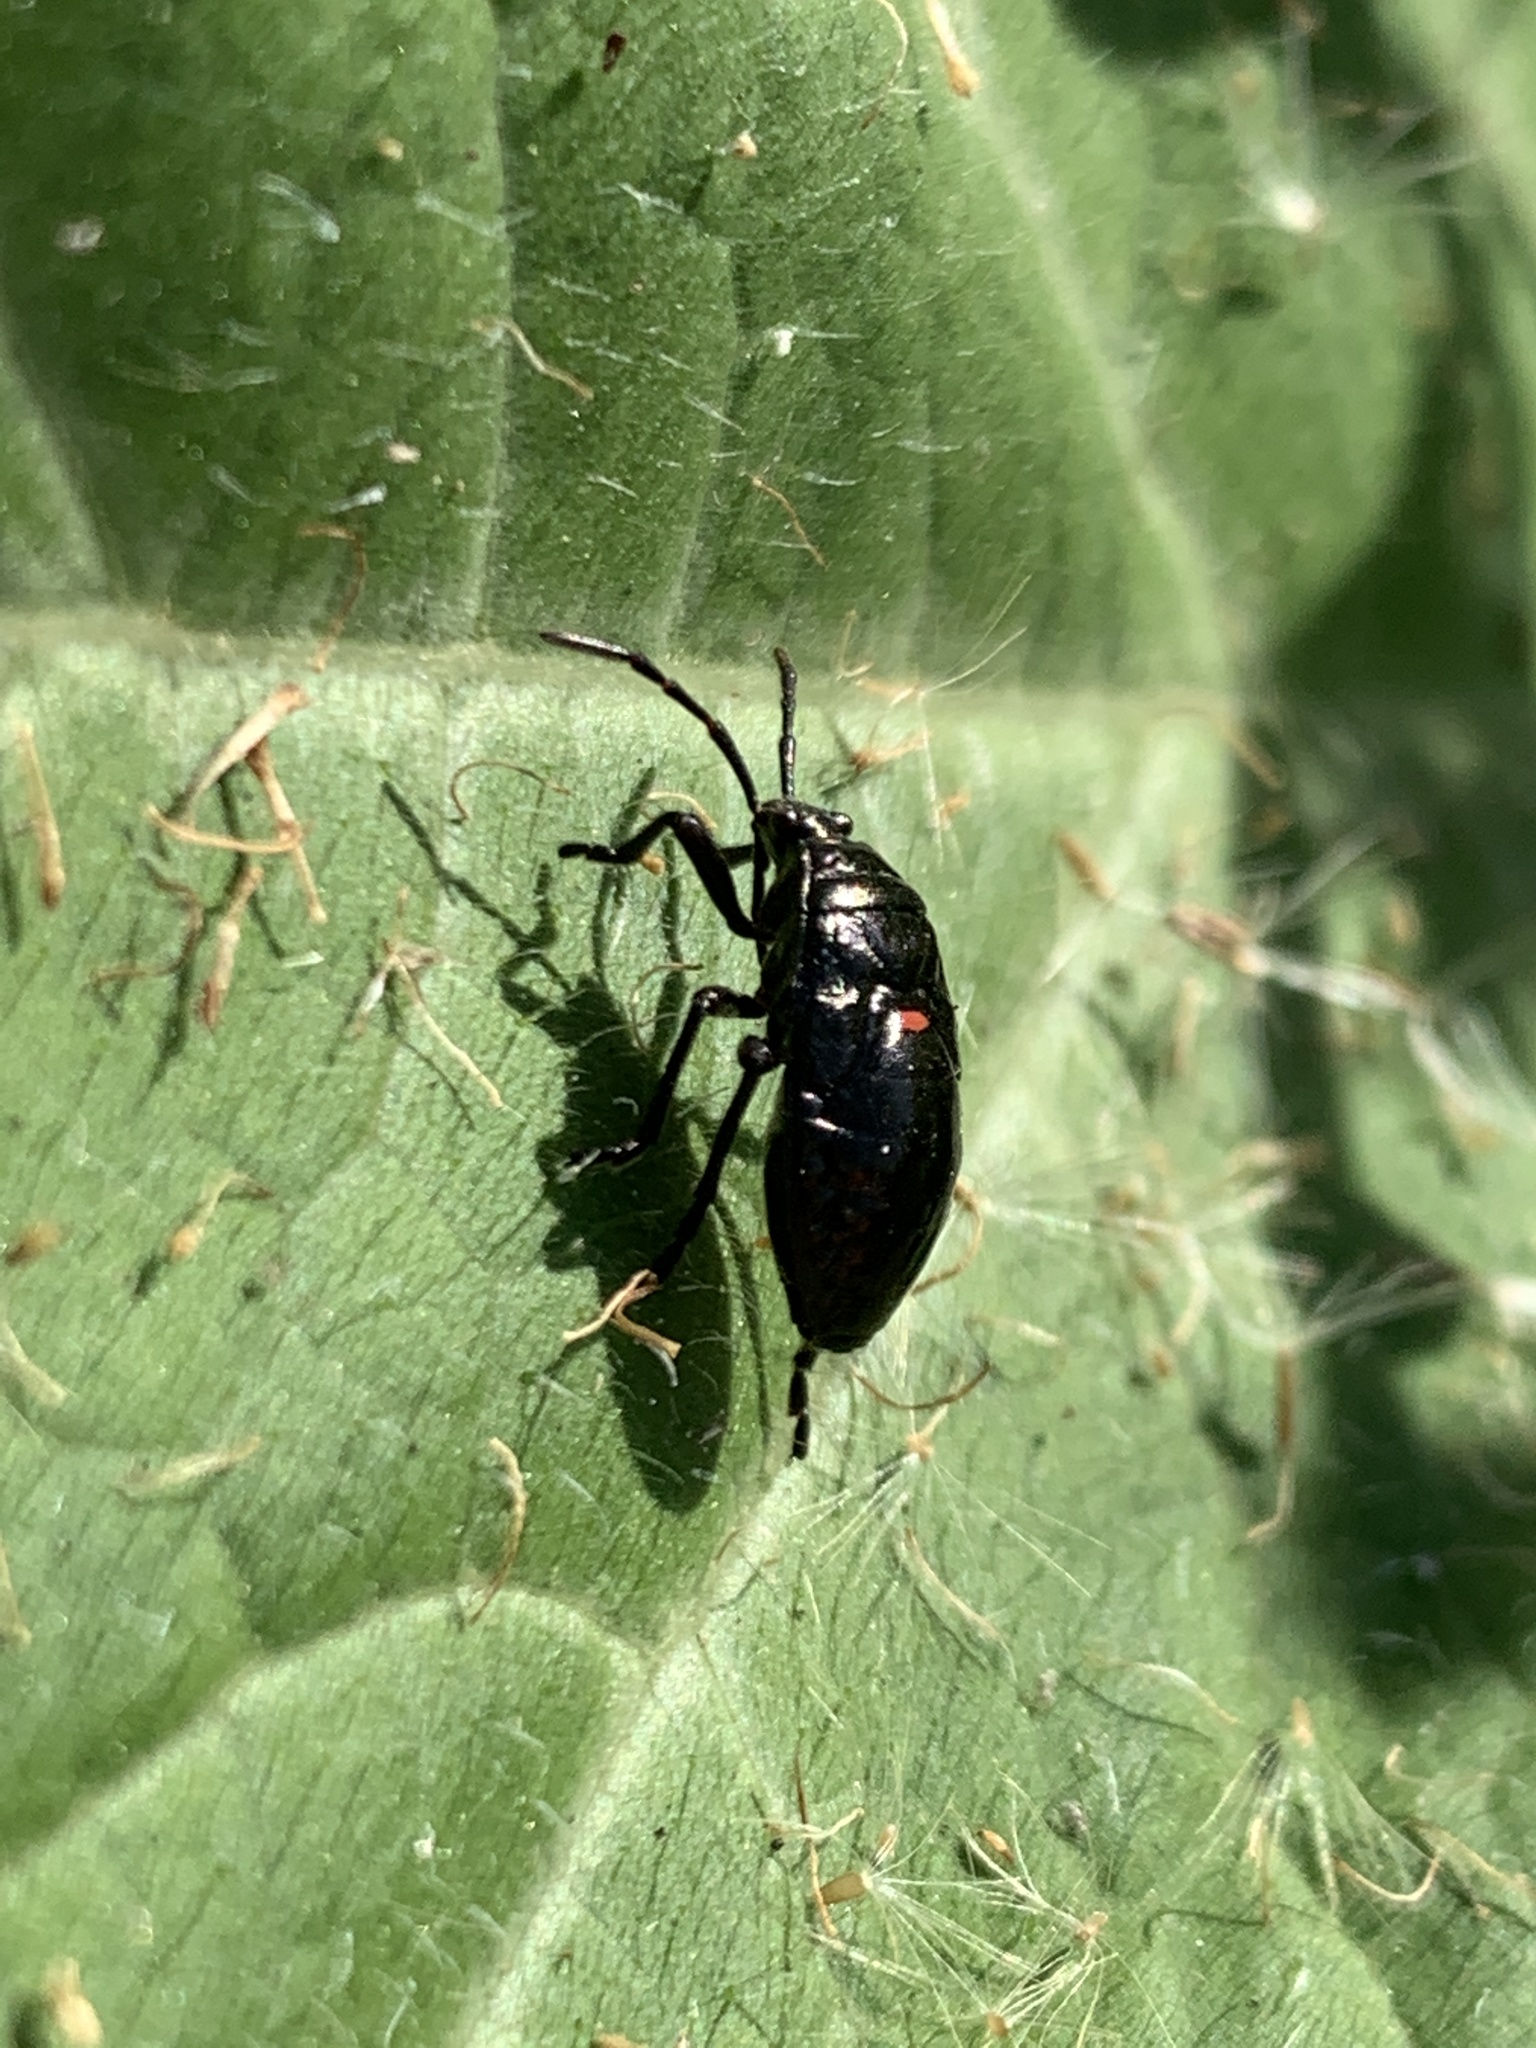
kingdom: Animalia
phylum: Arthropoda
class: Insecta
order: Hemiptera
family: Largidae
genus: Largus
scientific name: Largus rufipennis
